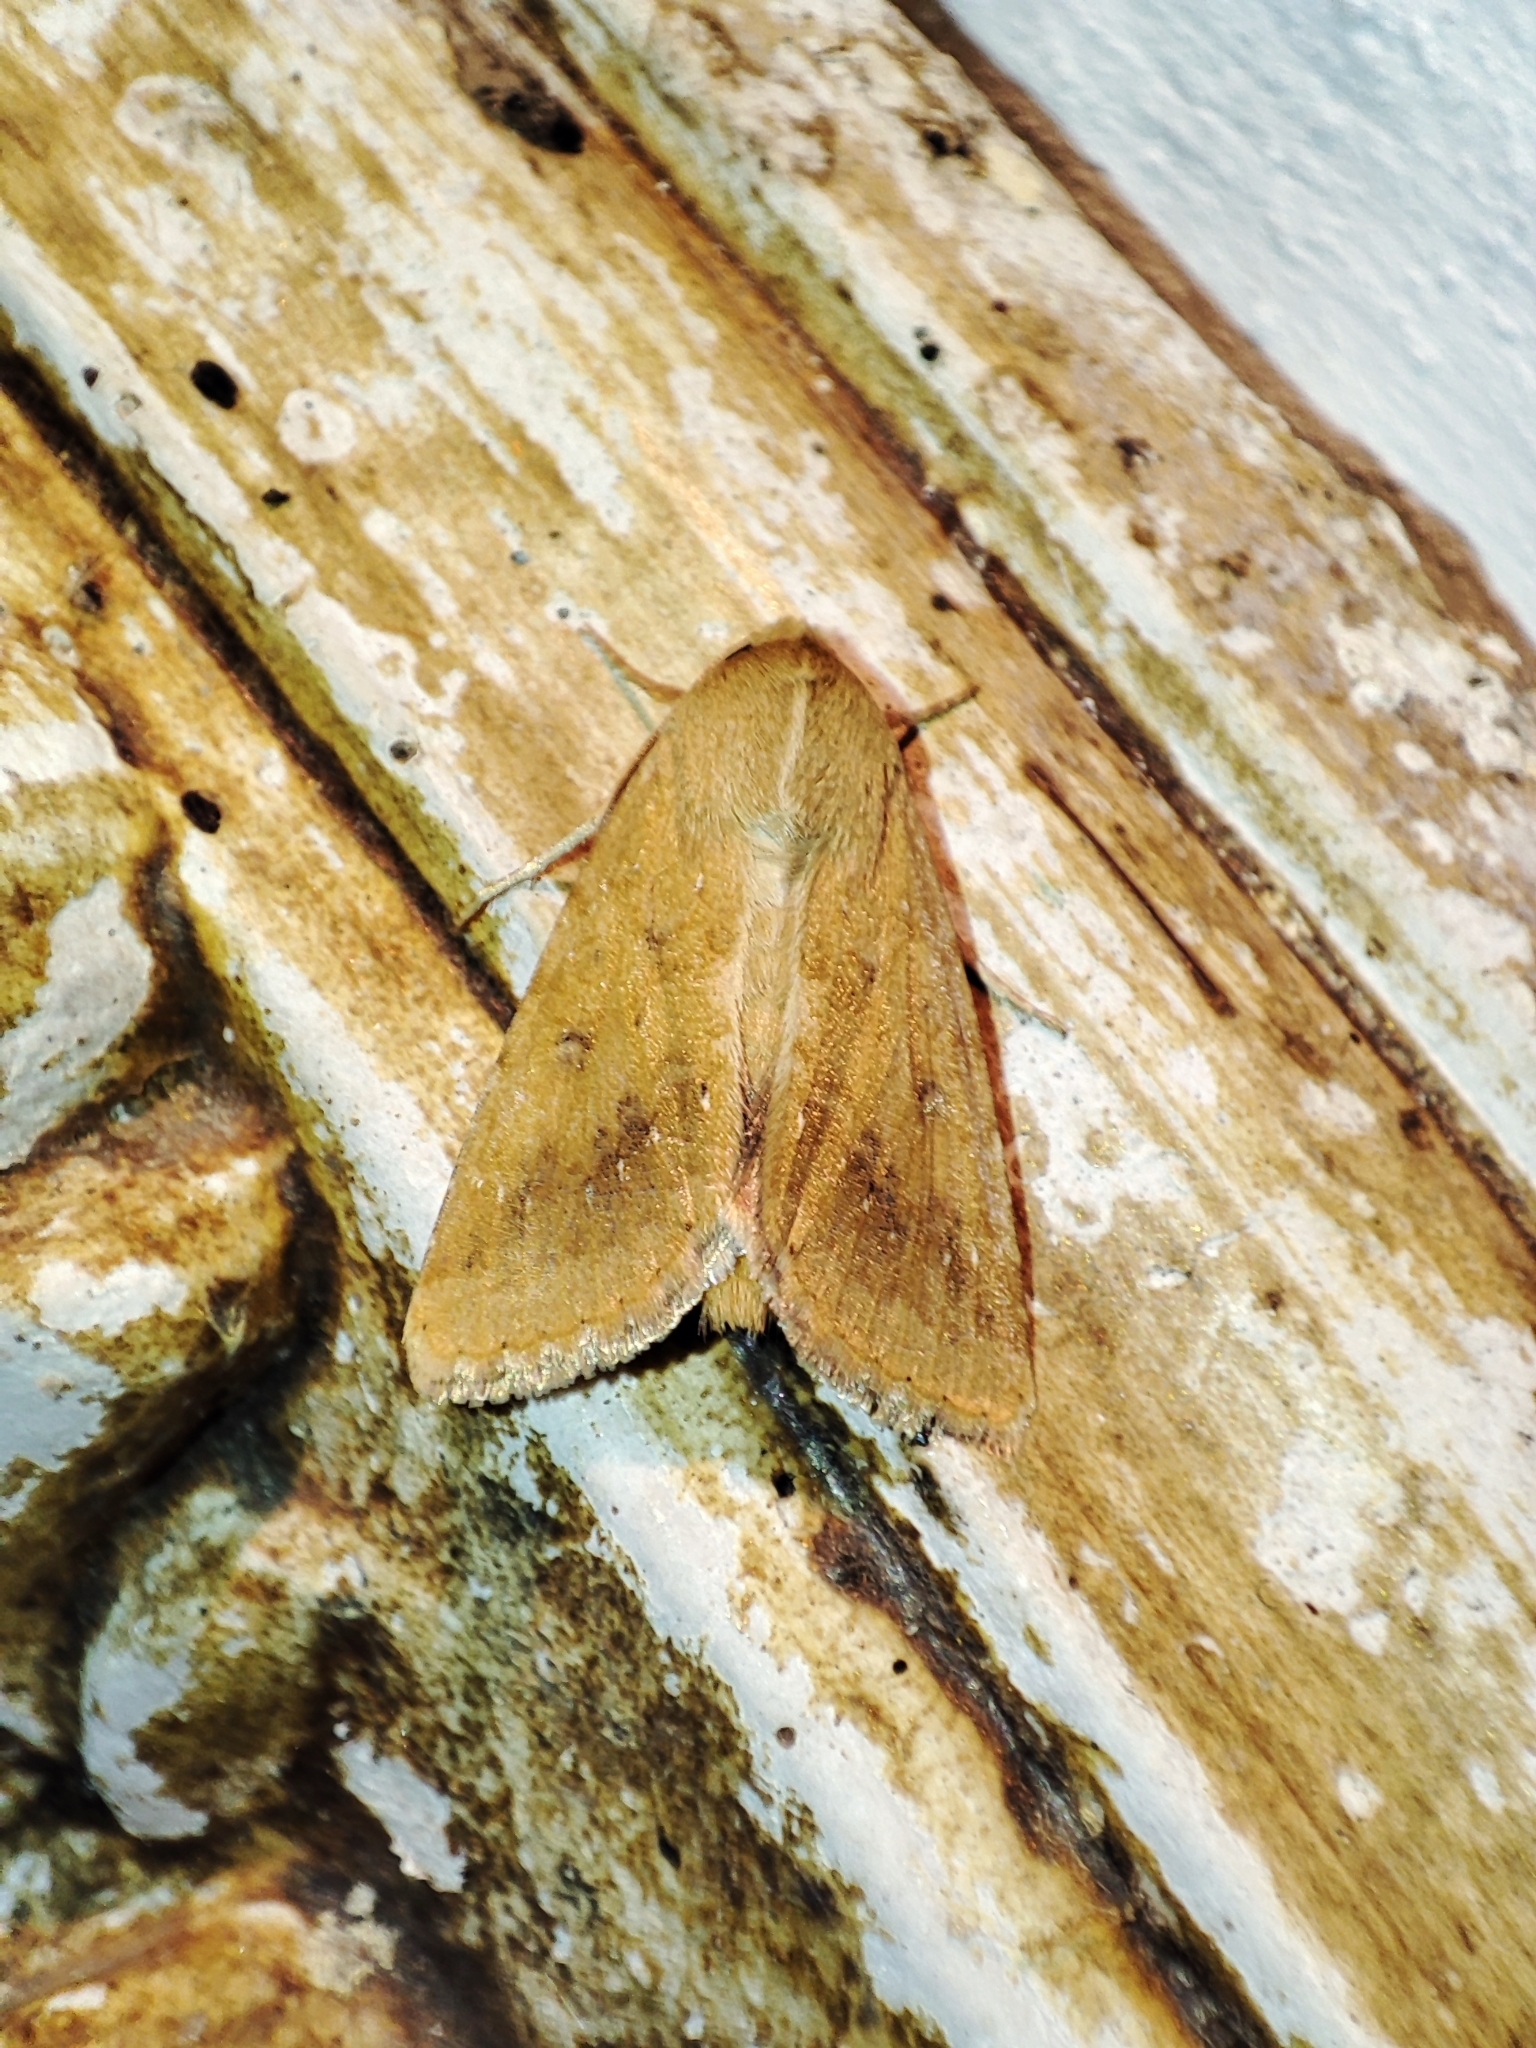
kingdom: Animalia
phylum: Arthropoda
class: Insecta
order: Lepidoptera
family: Noctuidae
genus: Helicoverpa
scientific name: Helicoverpa armigera
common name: Cotton bollworm
